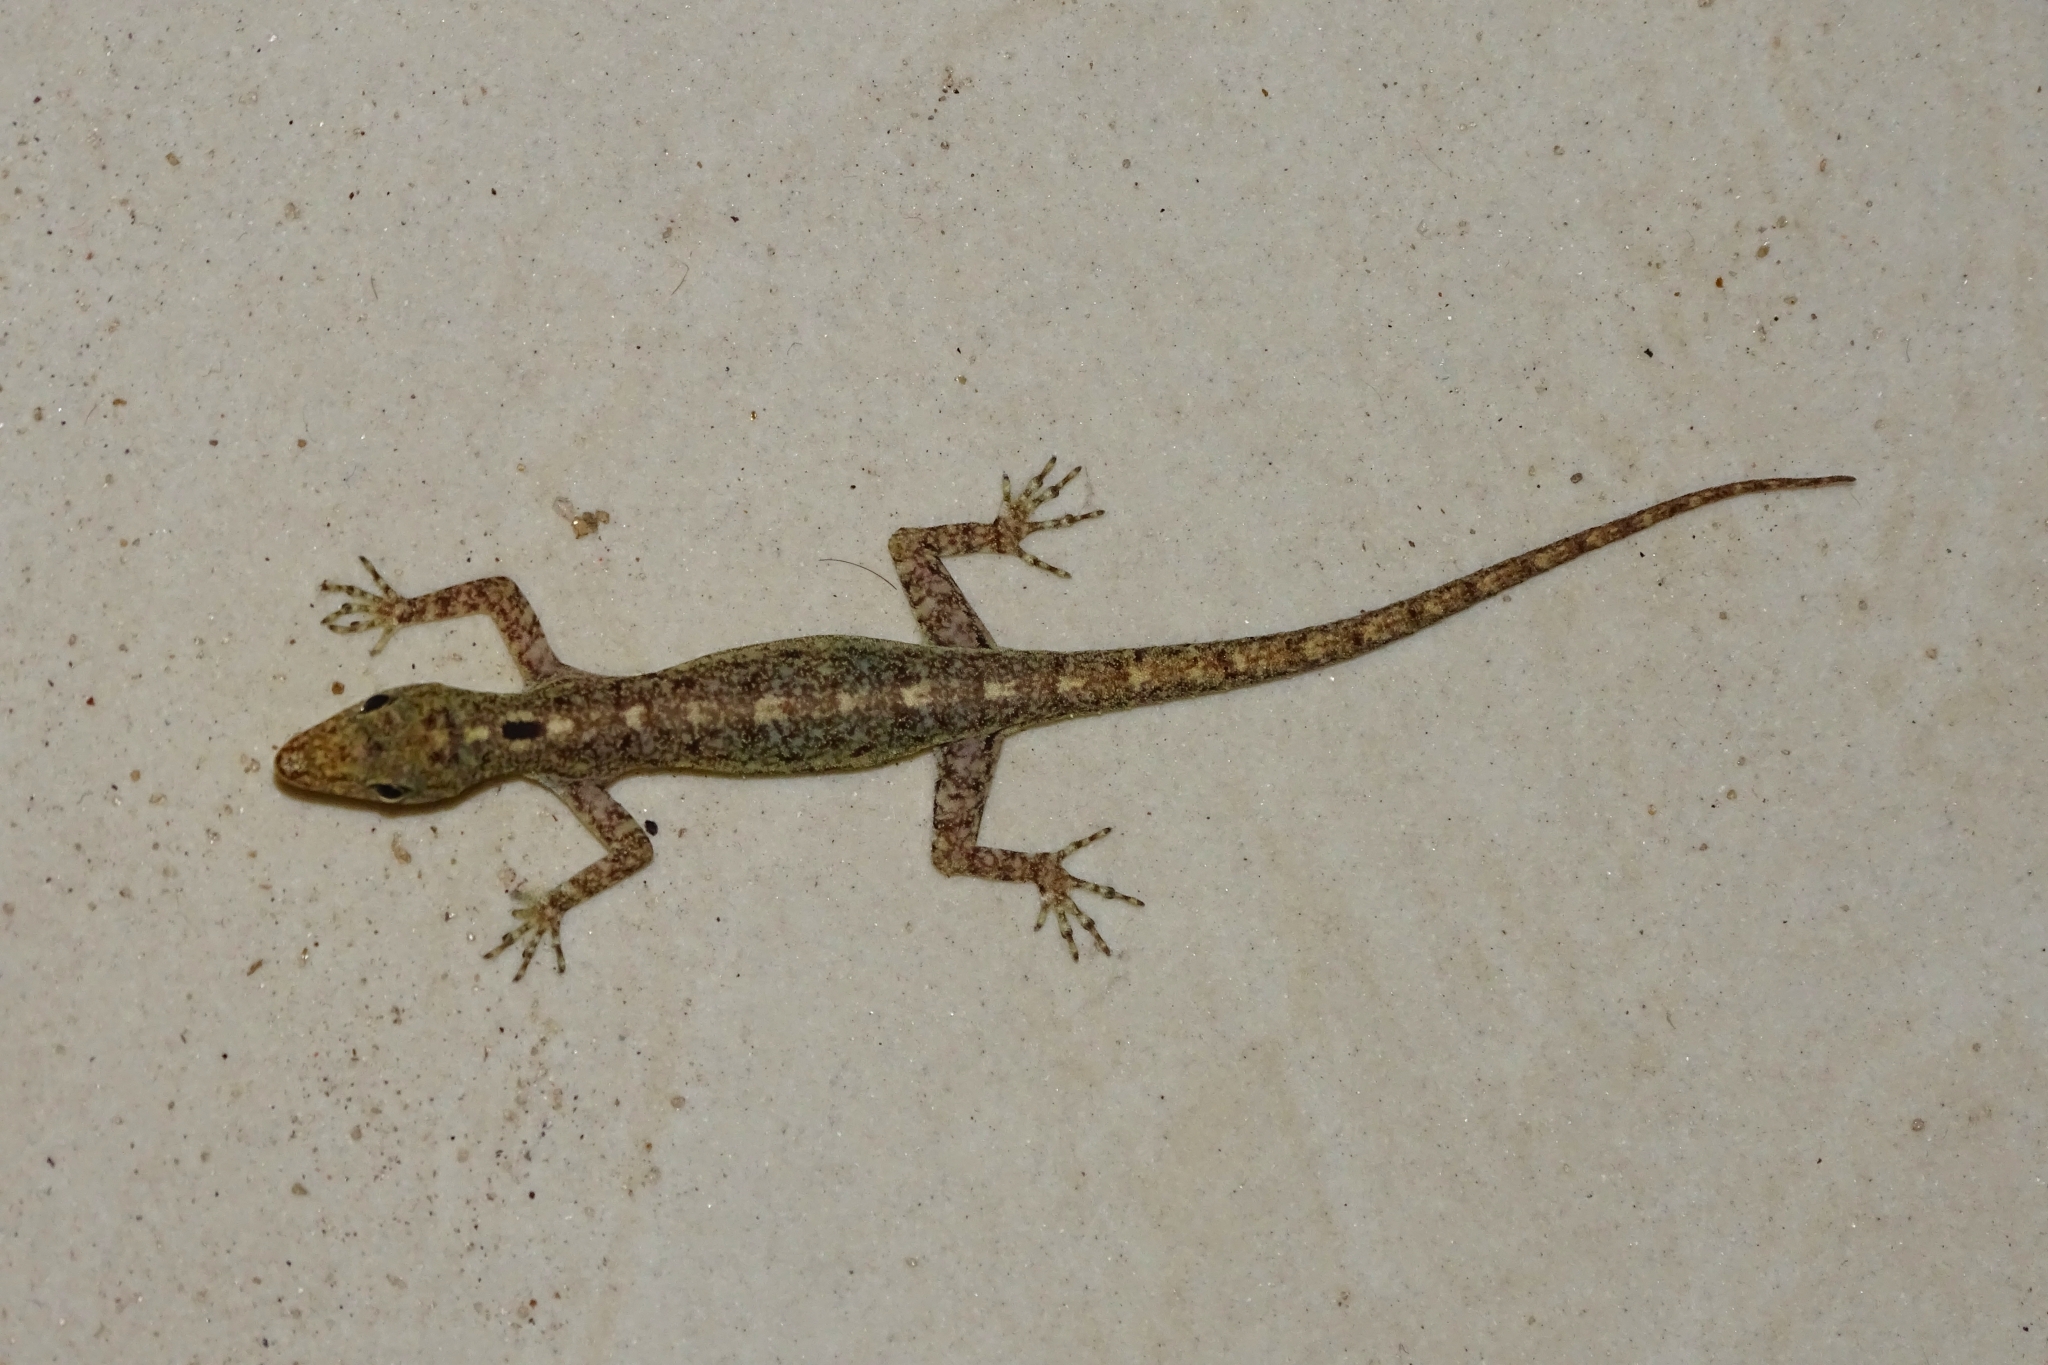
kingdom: Animalia
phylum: Chordata
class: Squamata
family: Gekkonidae
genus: Cnemaspis
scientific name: Cnemaspis littoralis
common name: Coastal day gecko
